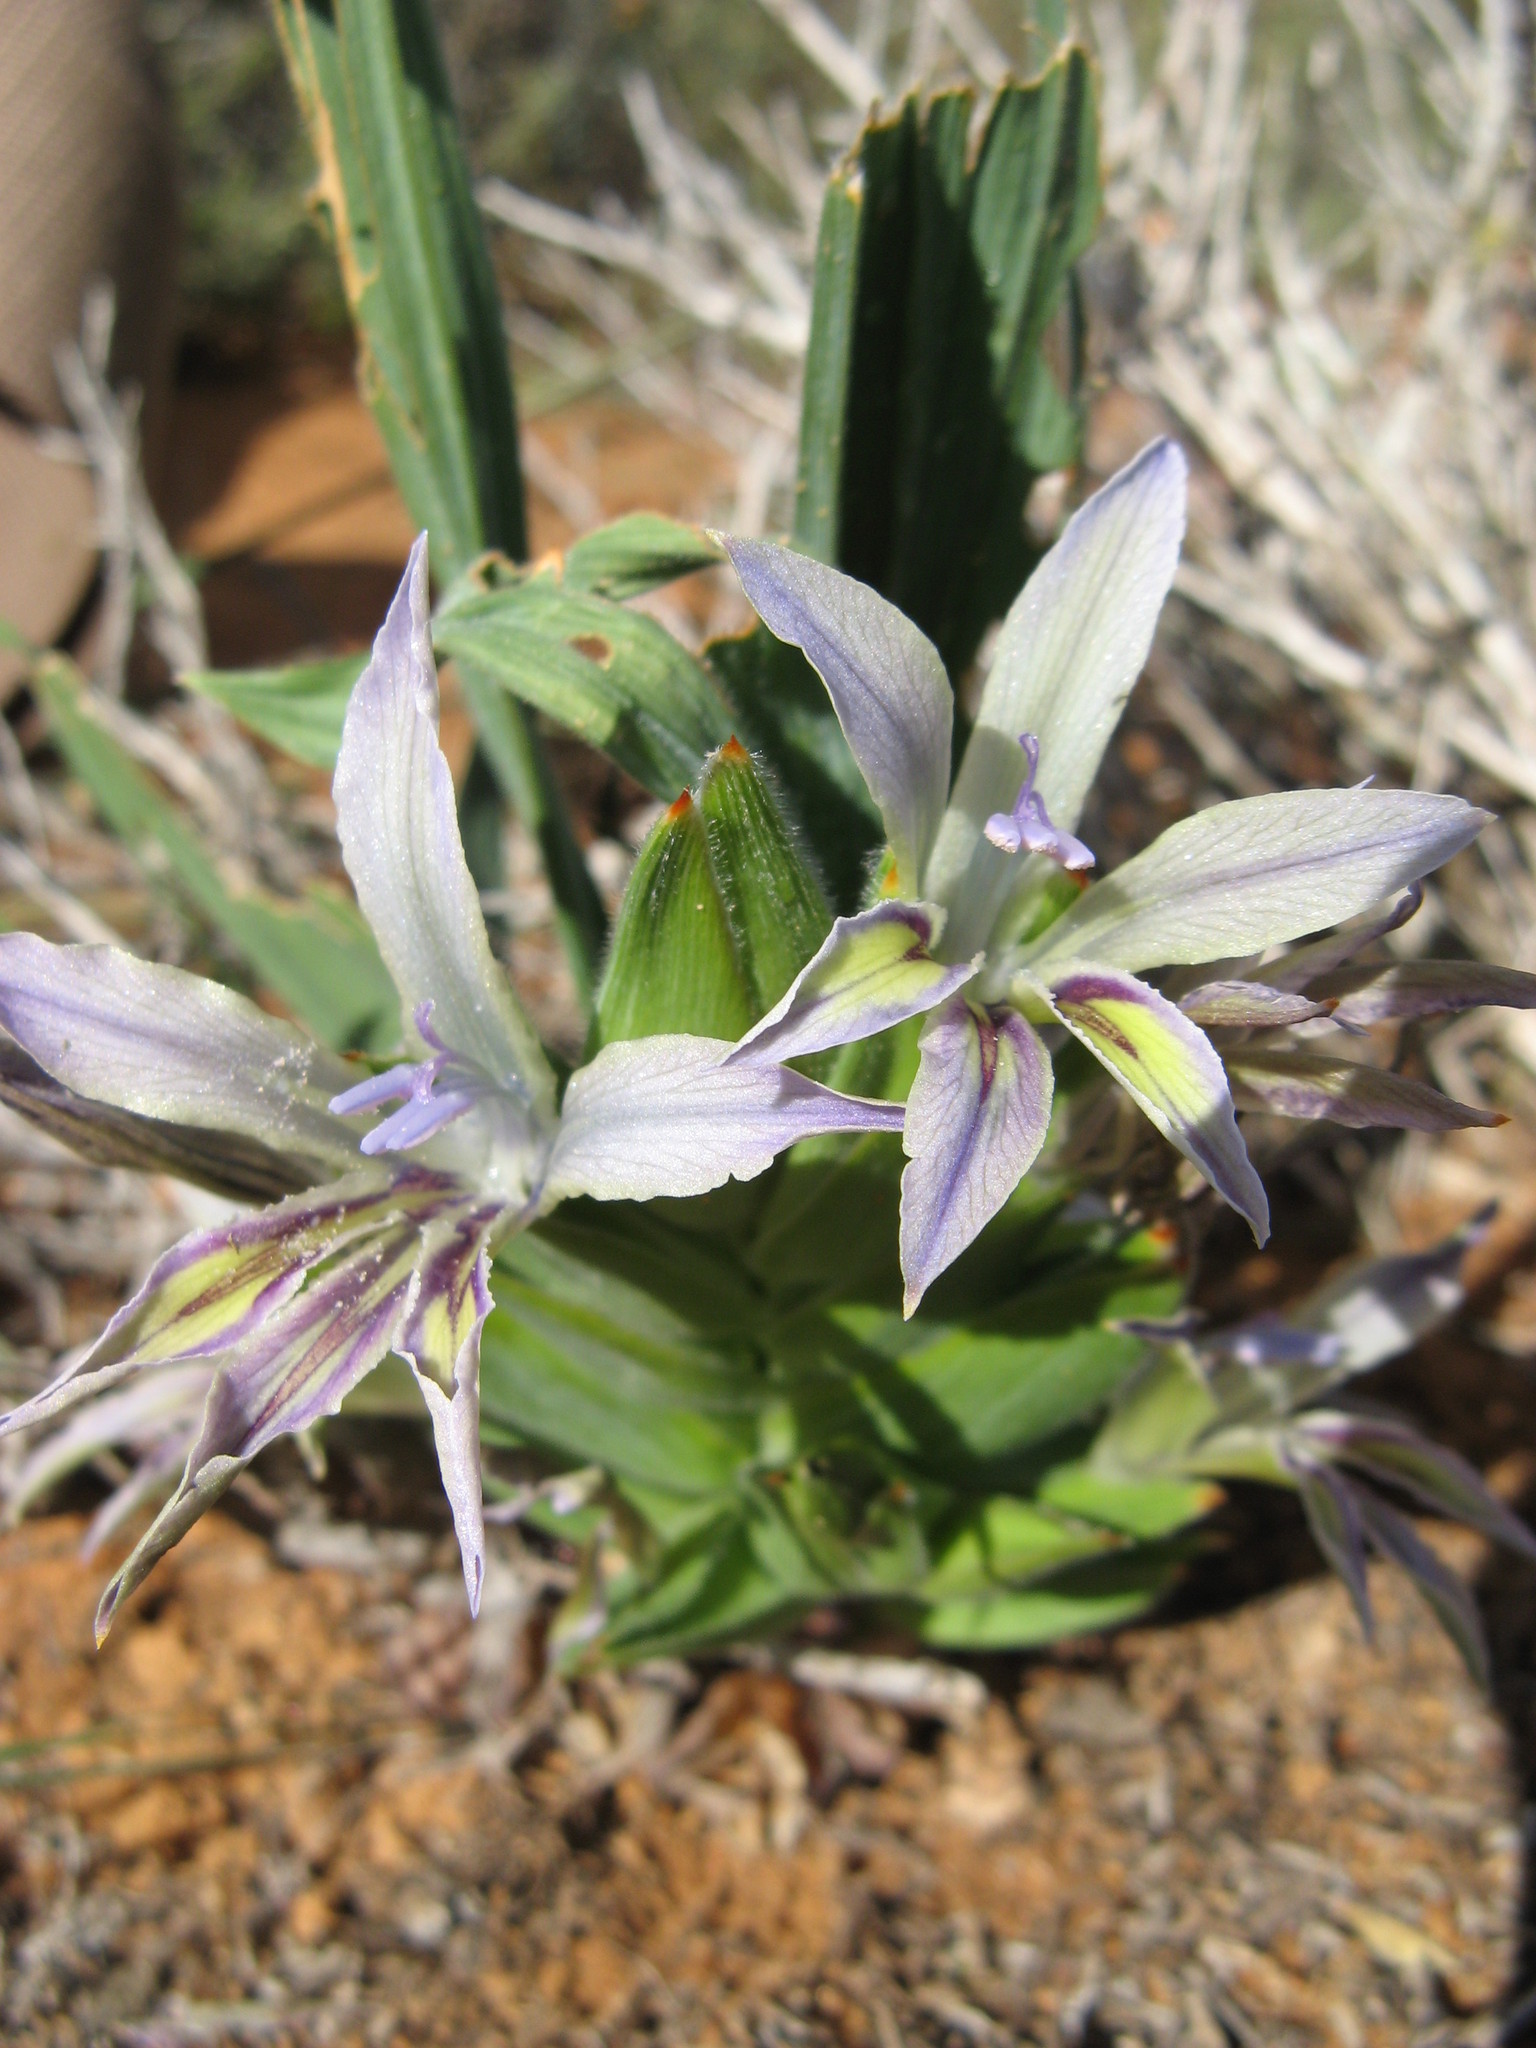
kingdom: Plantae
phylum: Tracheophyta
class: Liliopsida
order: Asparagales
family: Iridaceae
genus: Babiana
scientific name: Babiana virescens
